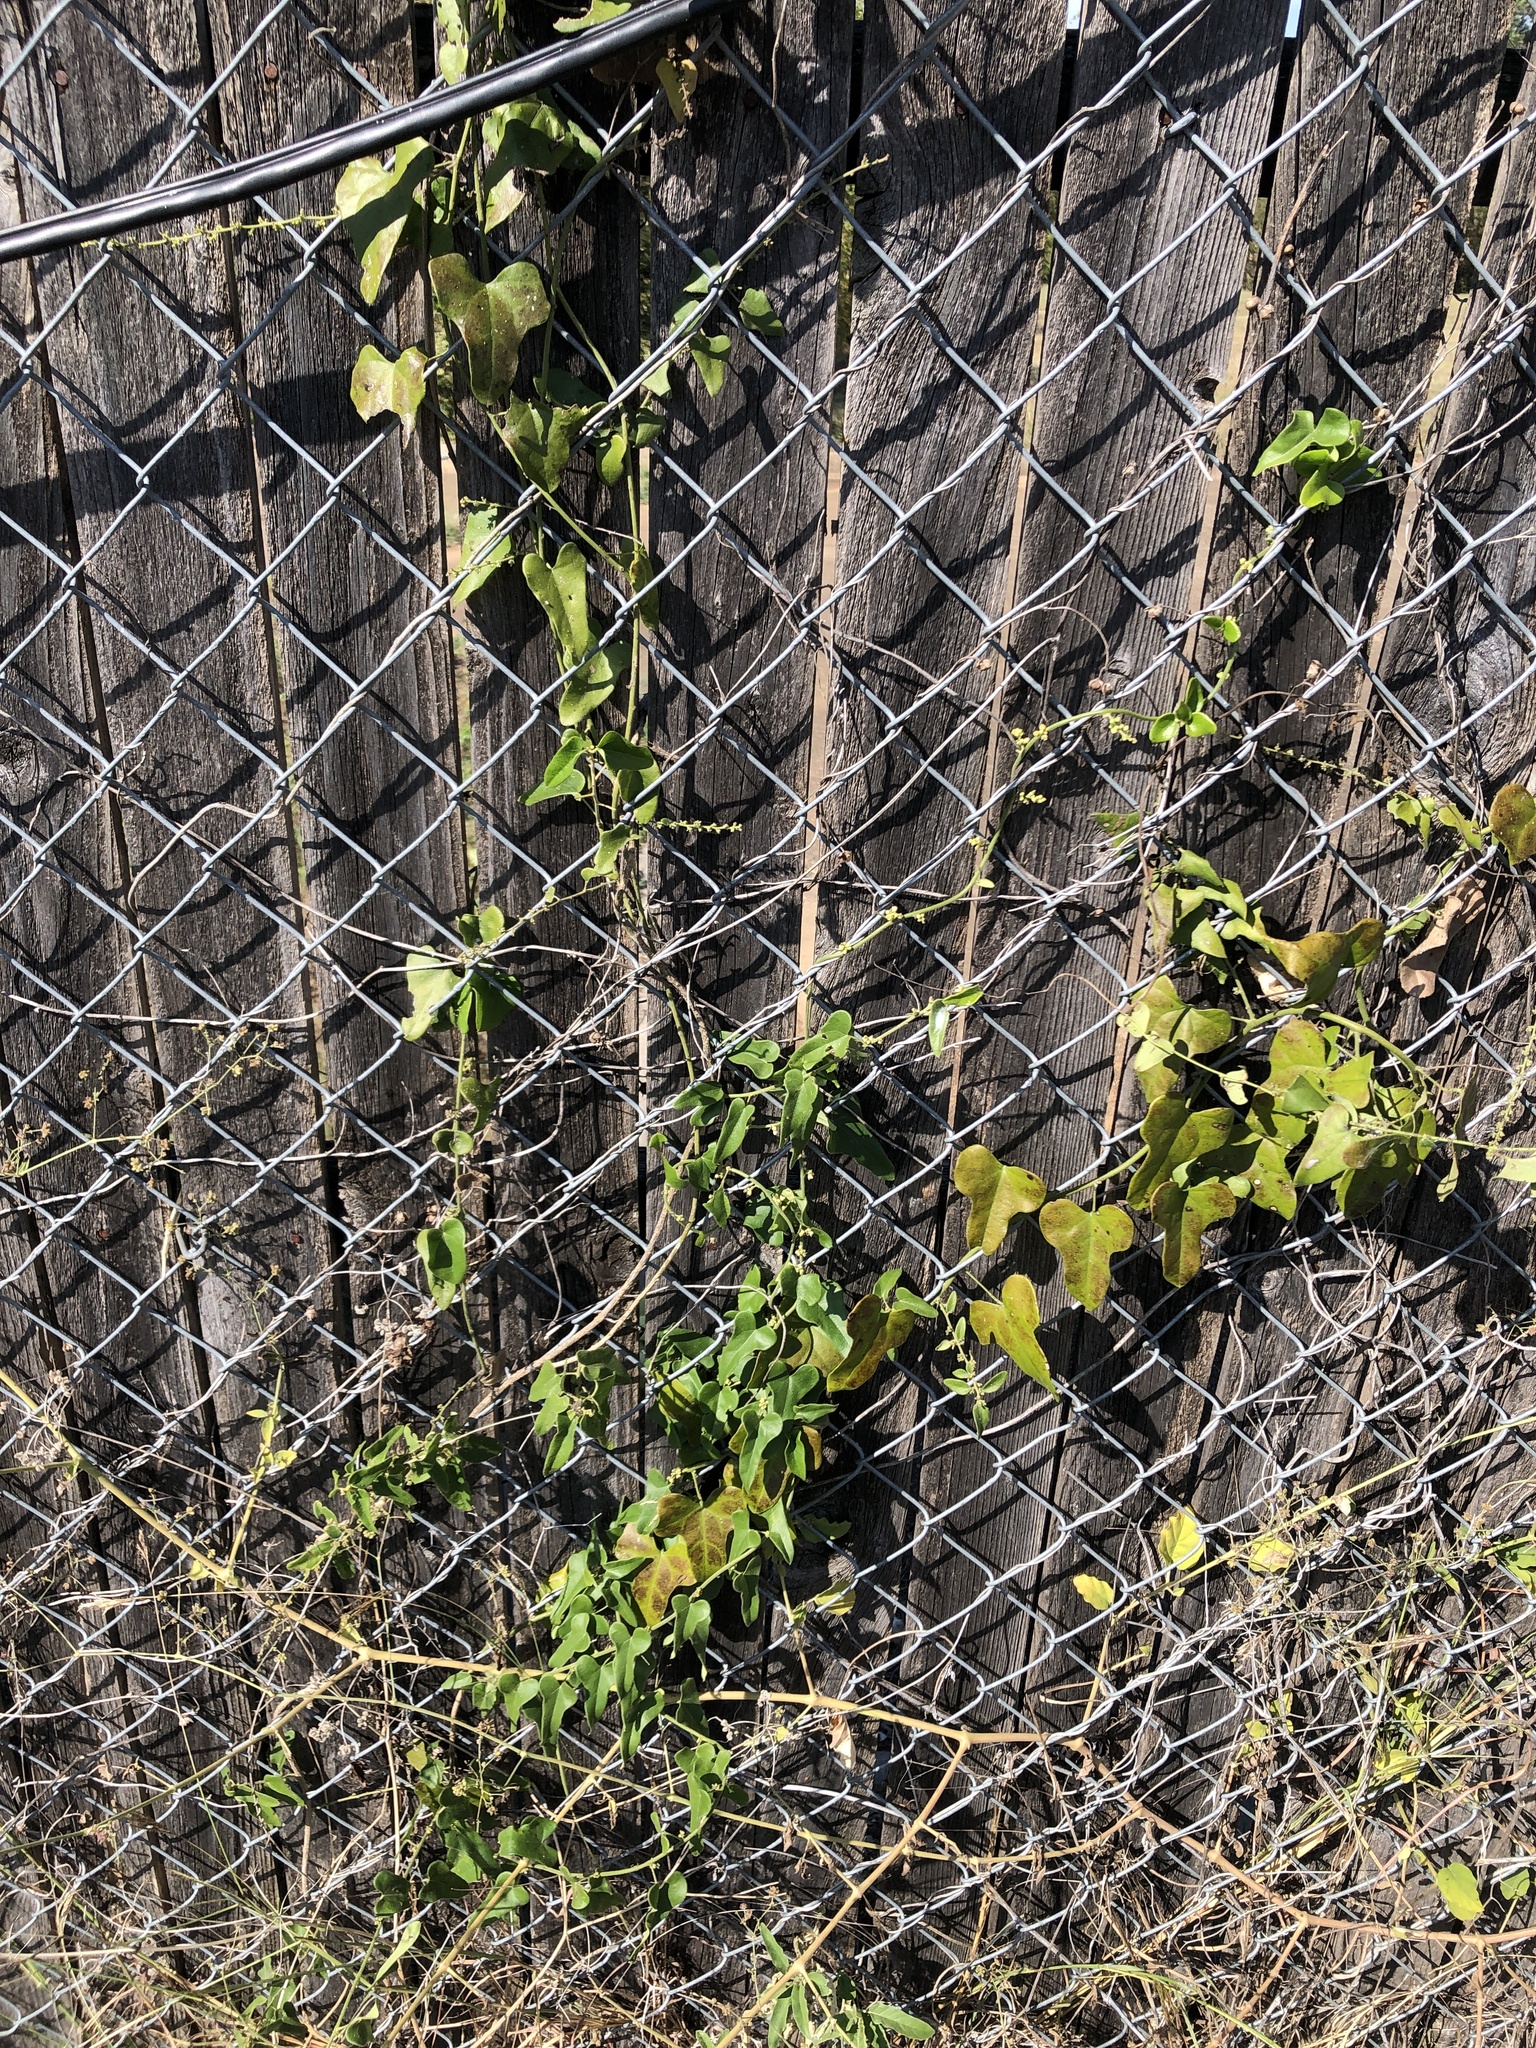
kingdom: Plantae
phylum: Tracheophyta
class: Magnoliopsida
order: Ranunculales
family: Menispermaceae
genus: Cocculus
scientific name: Cocculus carolinus
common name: Carolina moonseed
